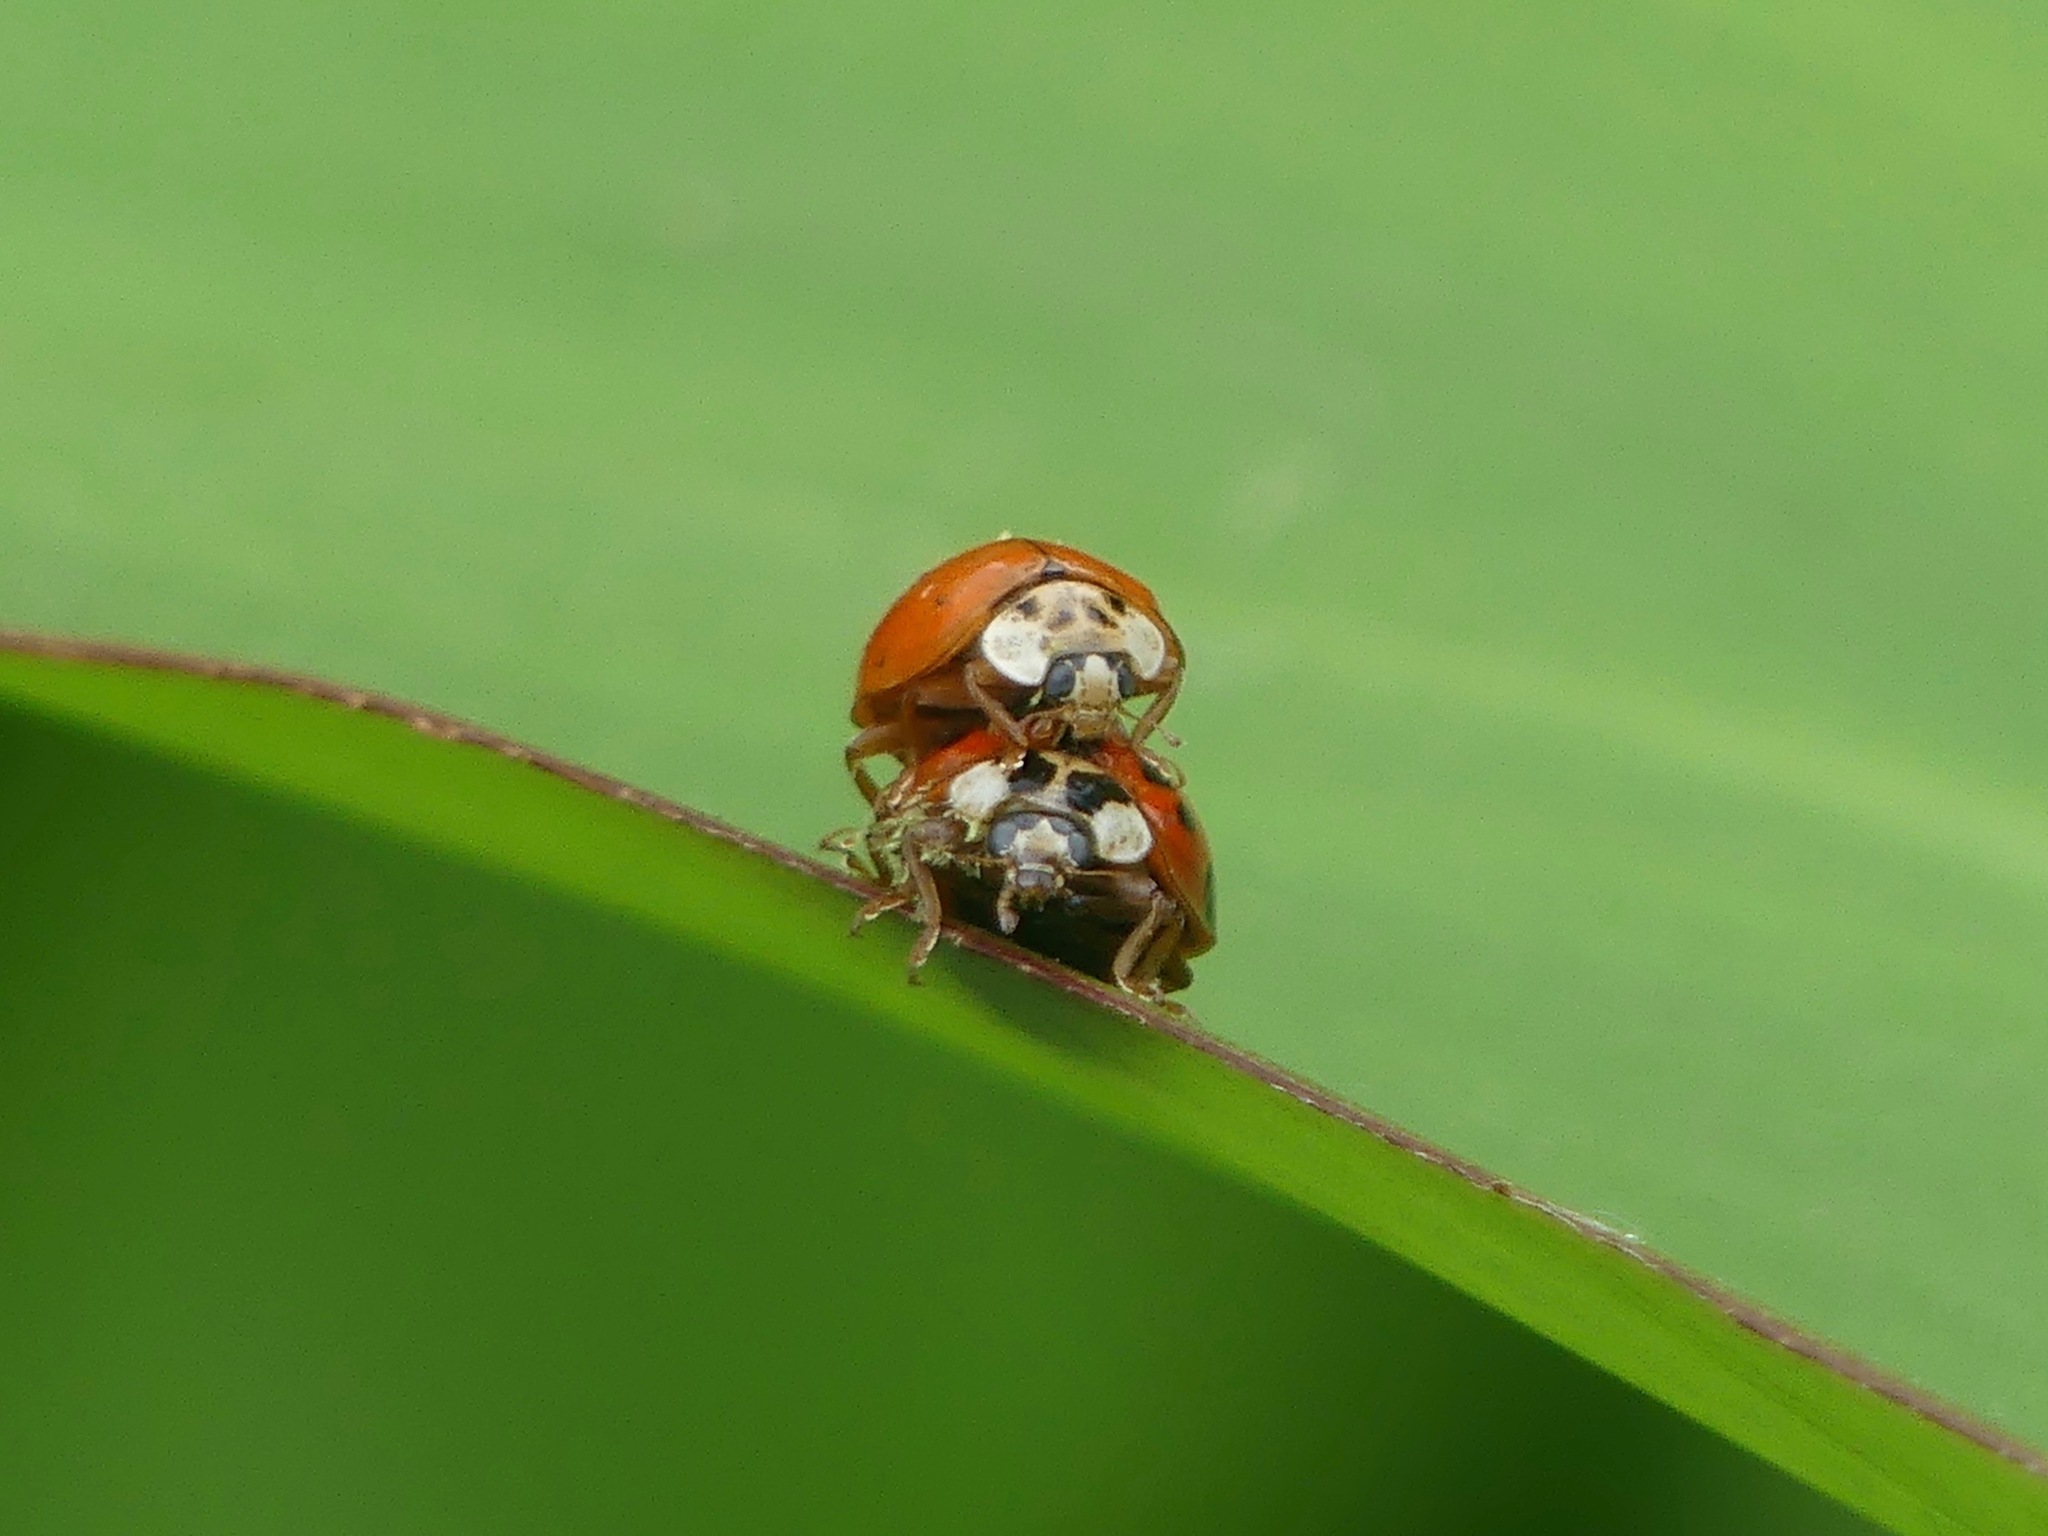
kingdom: Animalia
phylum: Arthropoda
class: Insecta
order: Coleoptera
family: Coccinellidae
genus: Harmonia
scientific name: Harmonia axyridis
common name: Harlequin ladybird
